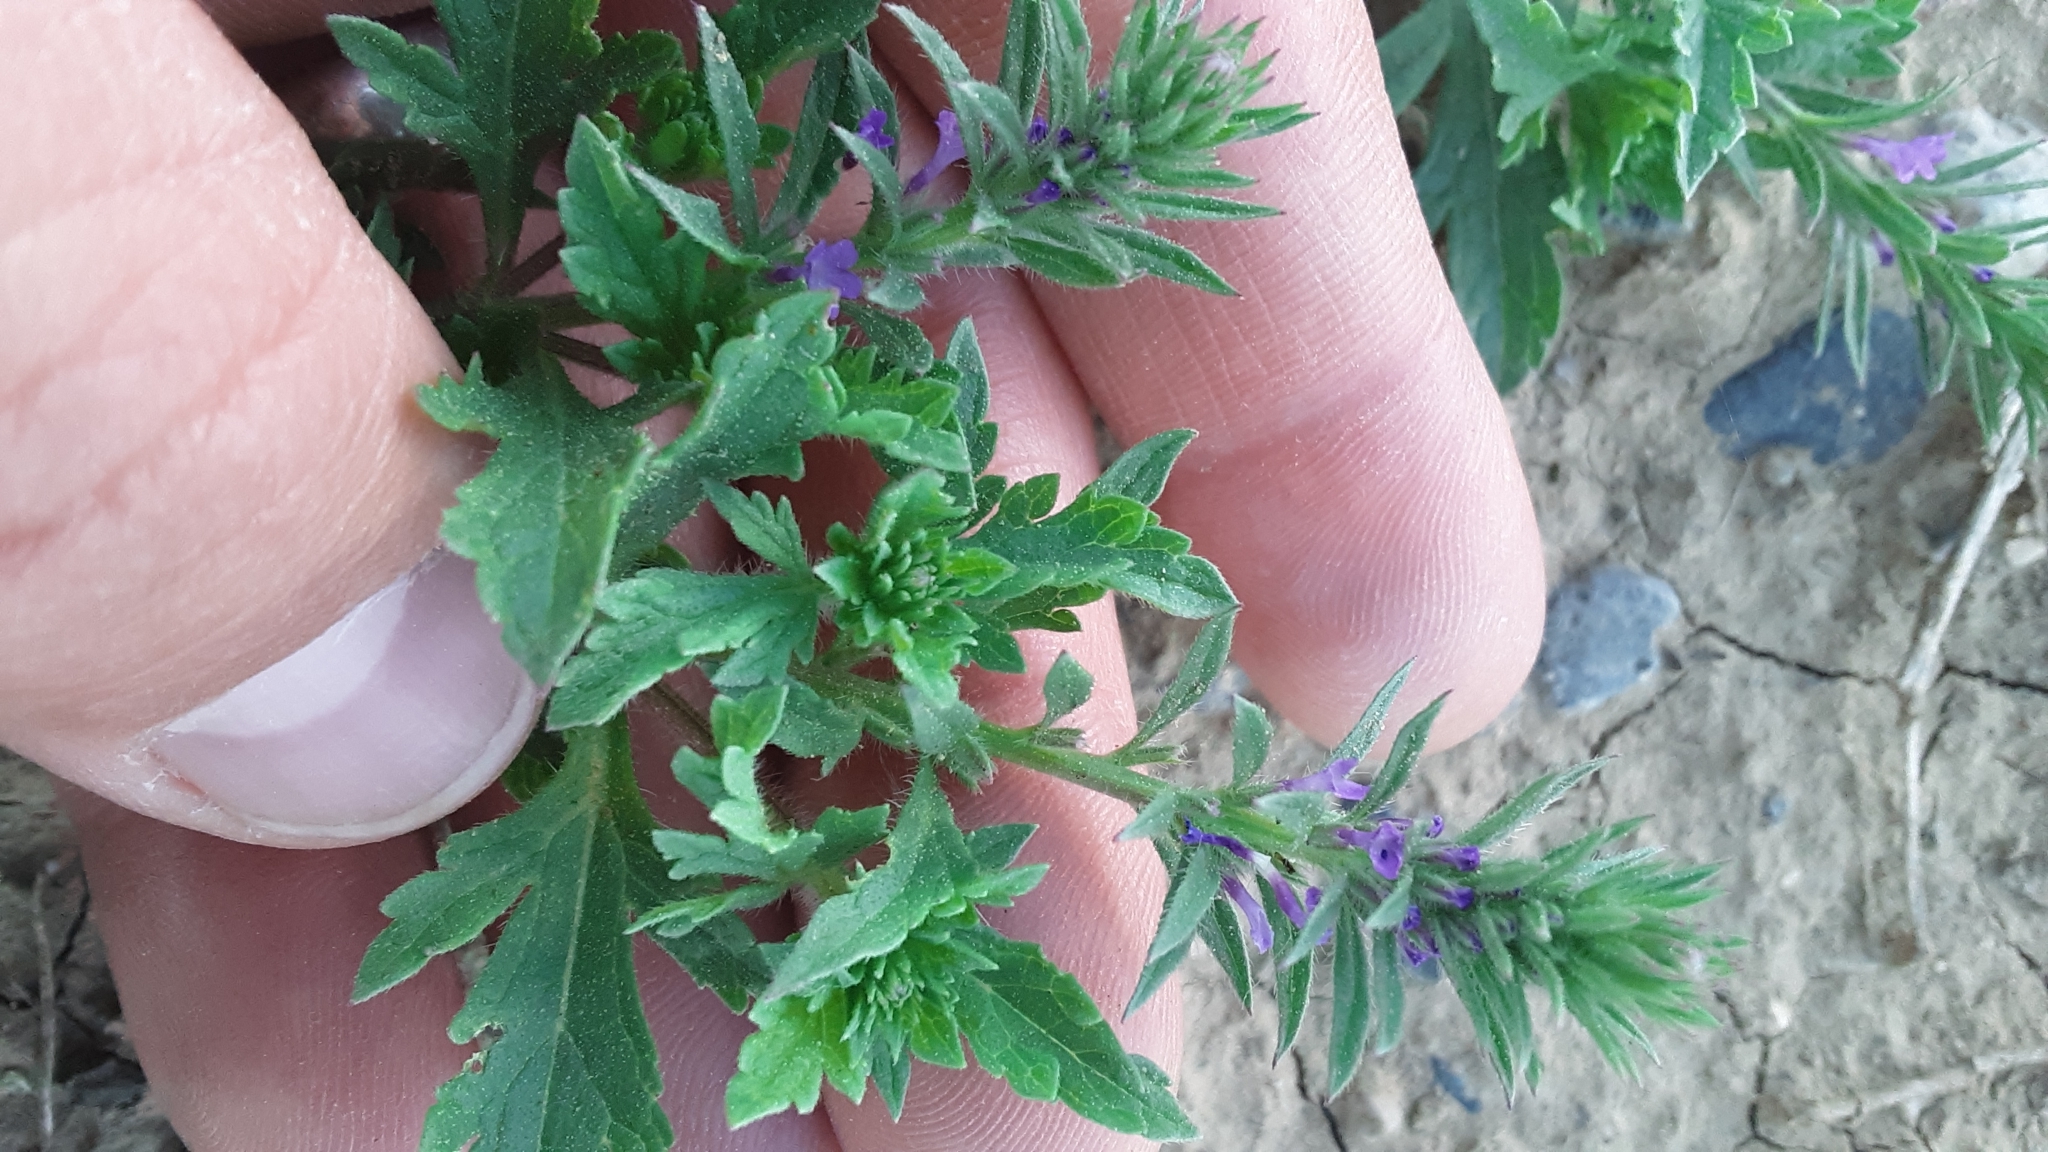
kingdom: Plantae
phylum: Tracheophyta
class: Magnoliopsida
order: Lamiales
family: Verbenaceae
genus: Verbena
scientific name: Verbena bracteata
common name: Bracted vervain
